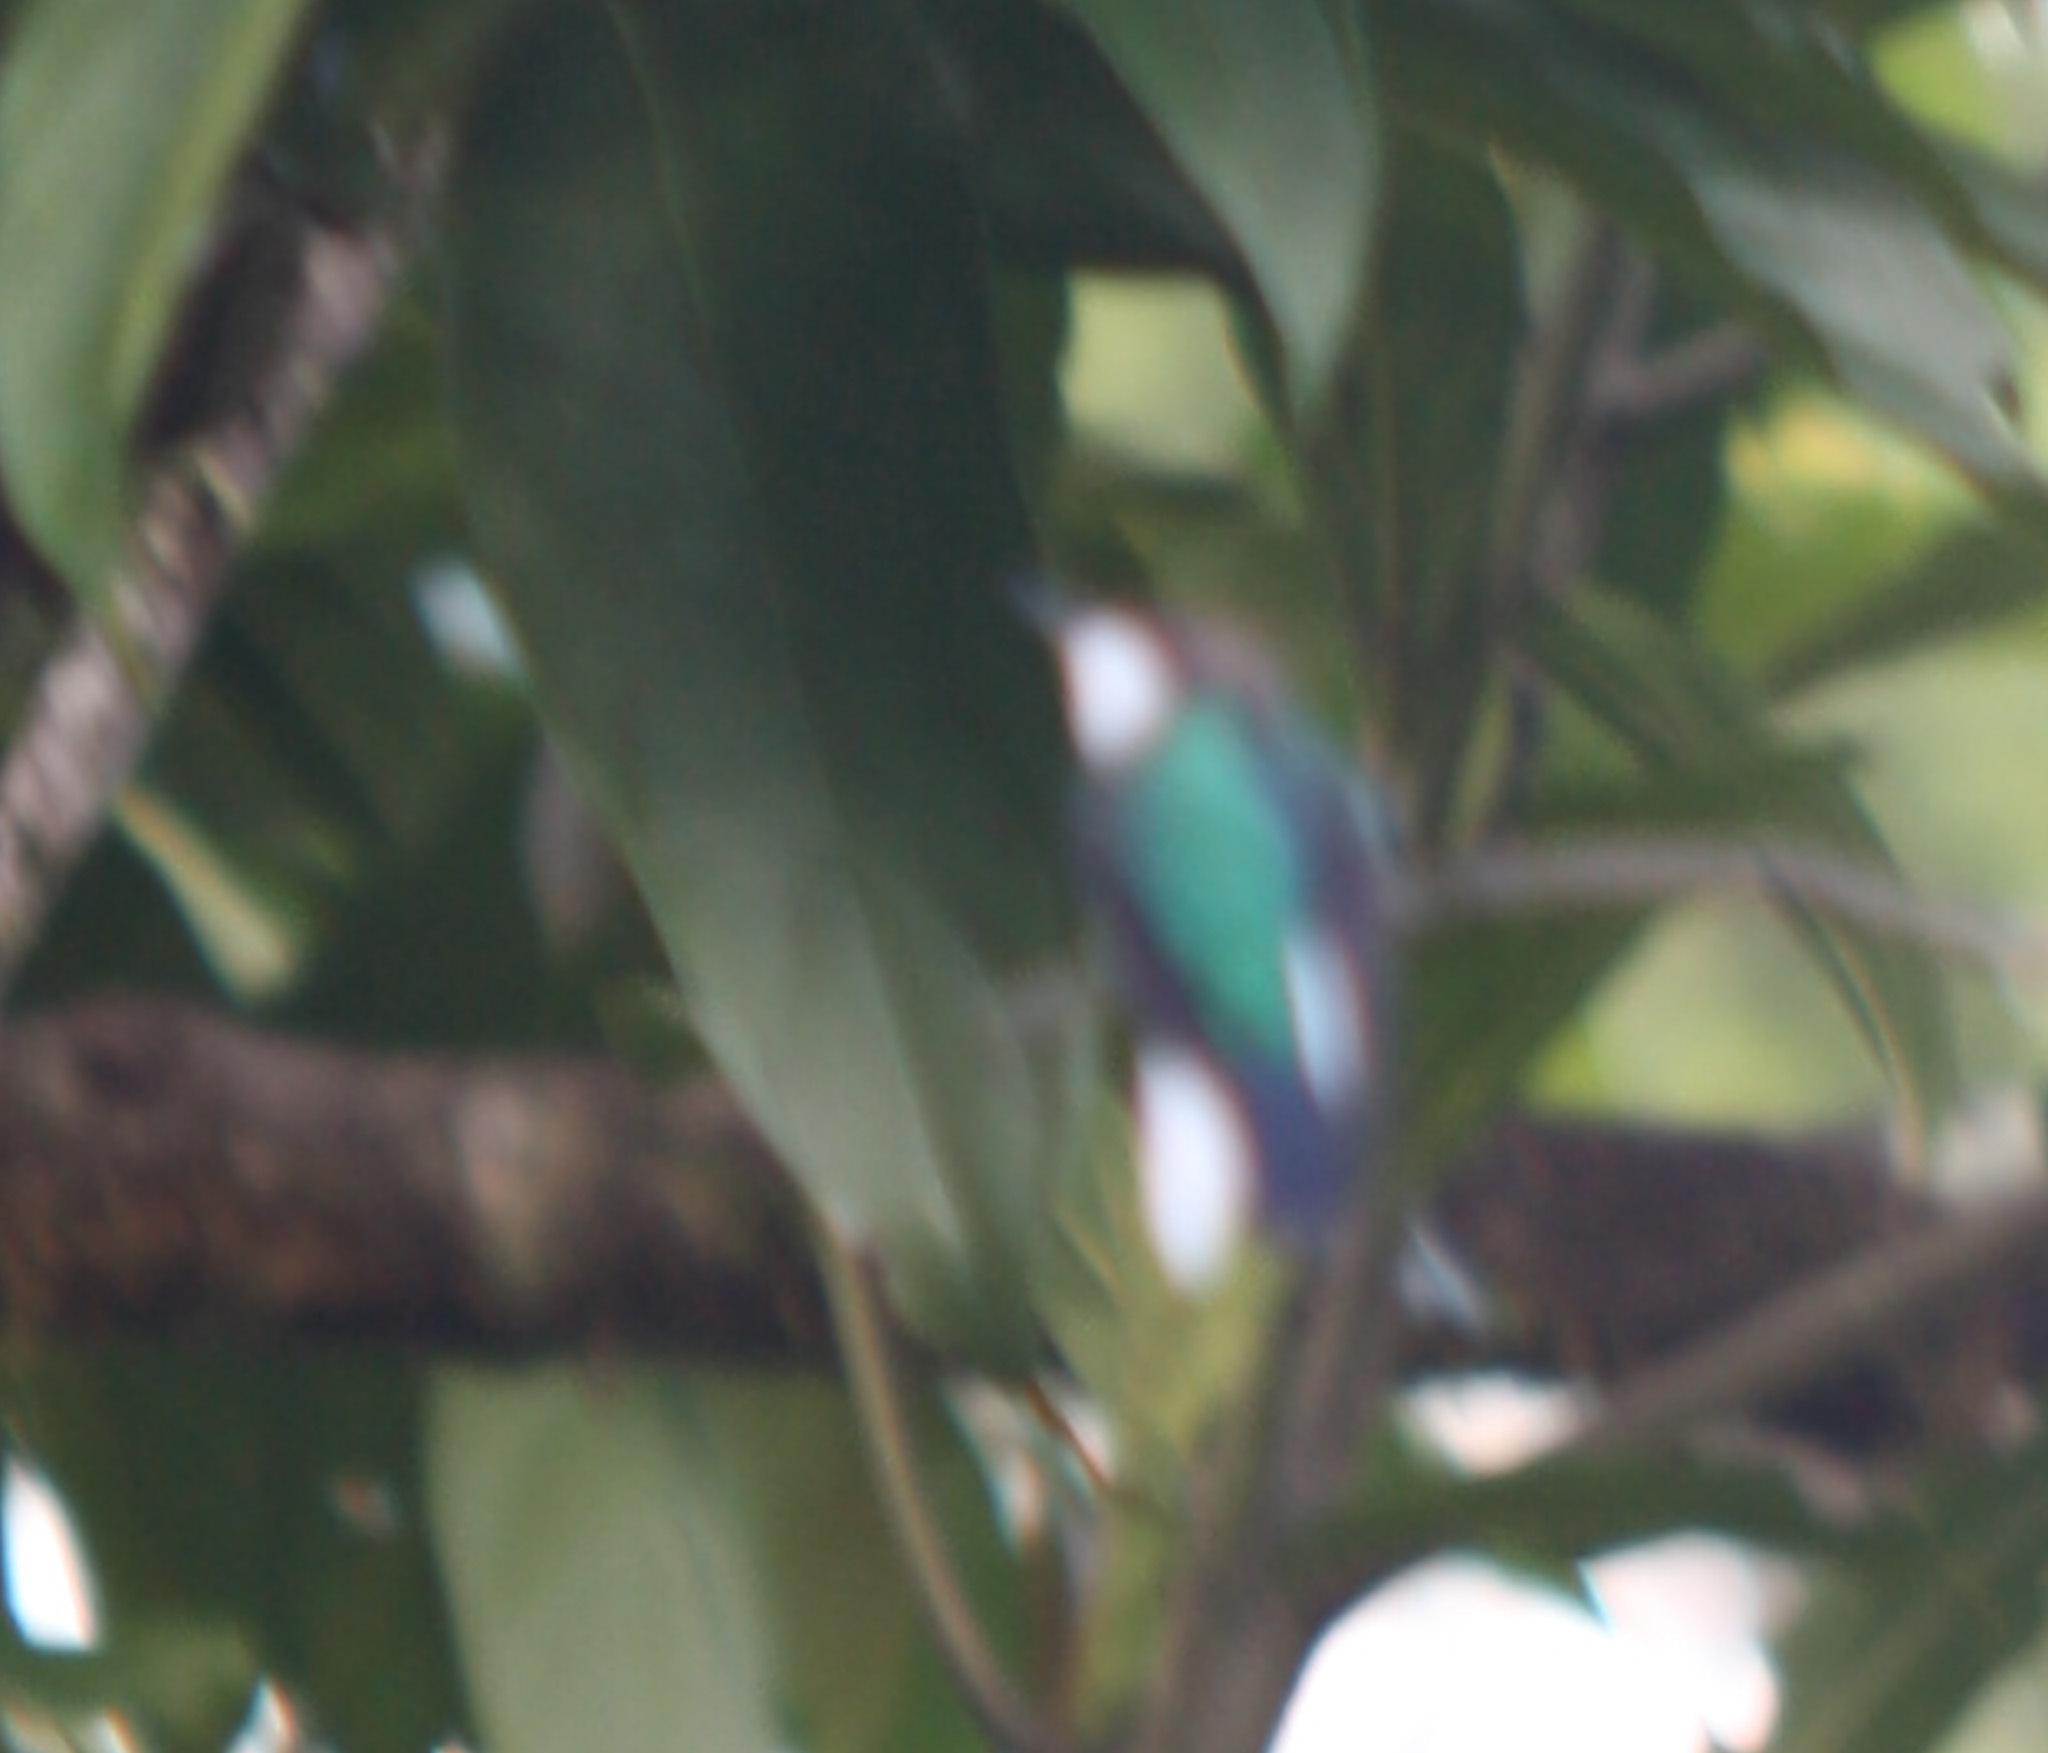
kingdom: Animalia
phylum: Chordata
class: Aves
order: Apodiformes
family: Trochilidae
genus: Heliothryx
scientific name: Heliothryx barroti
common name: Purple-crowned fairy
